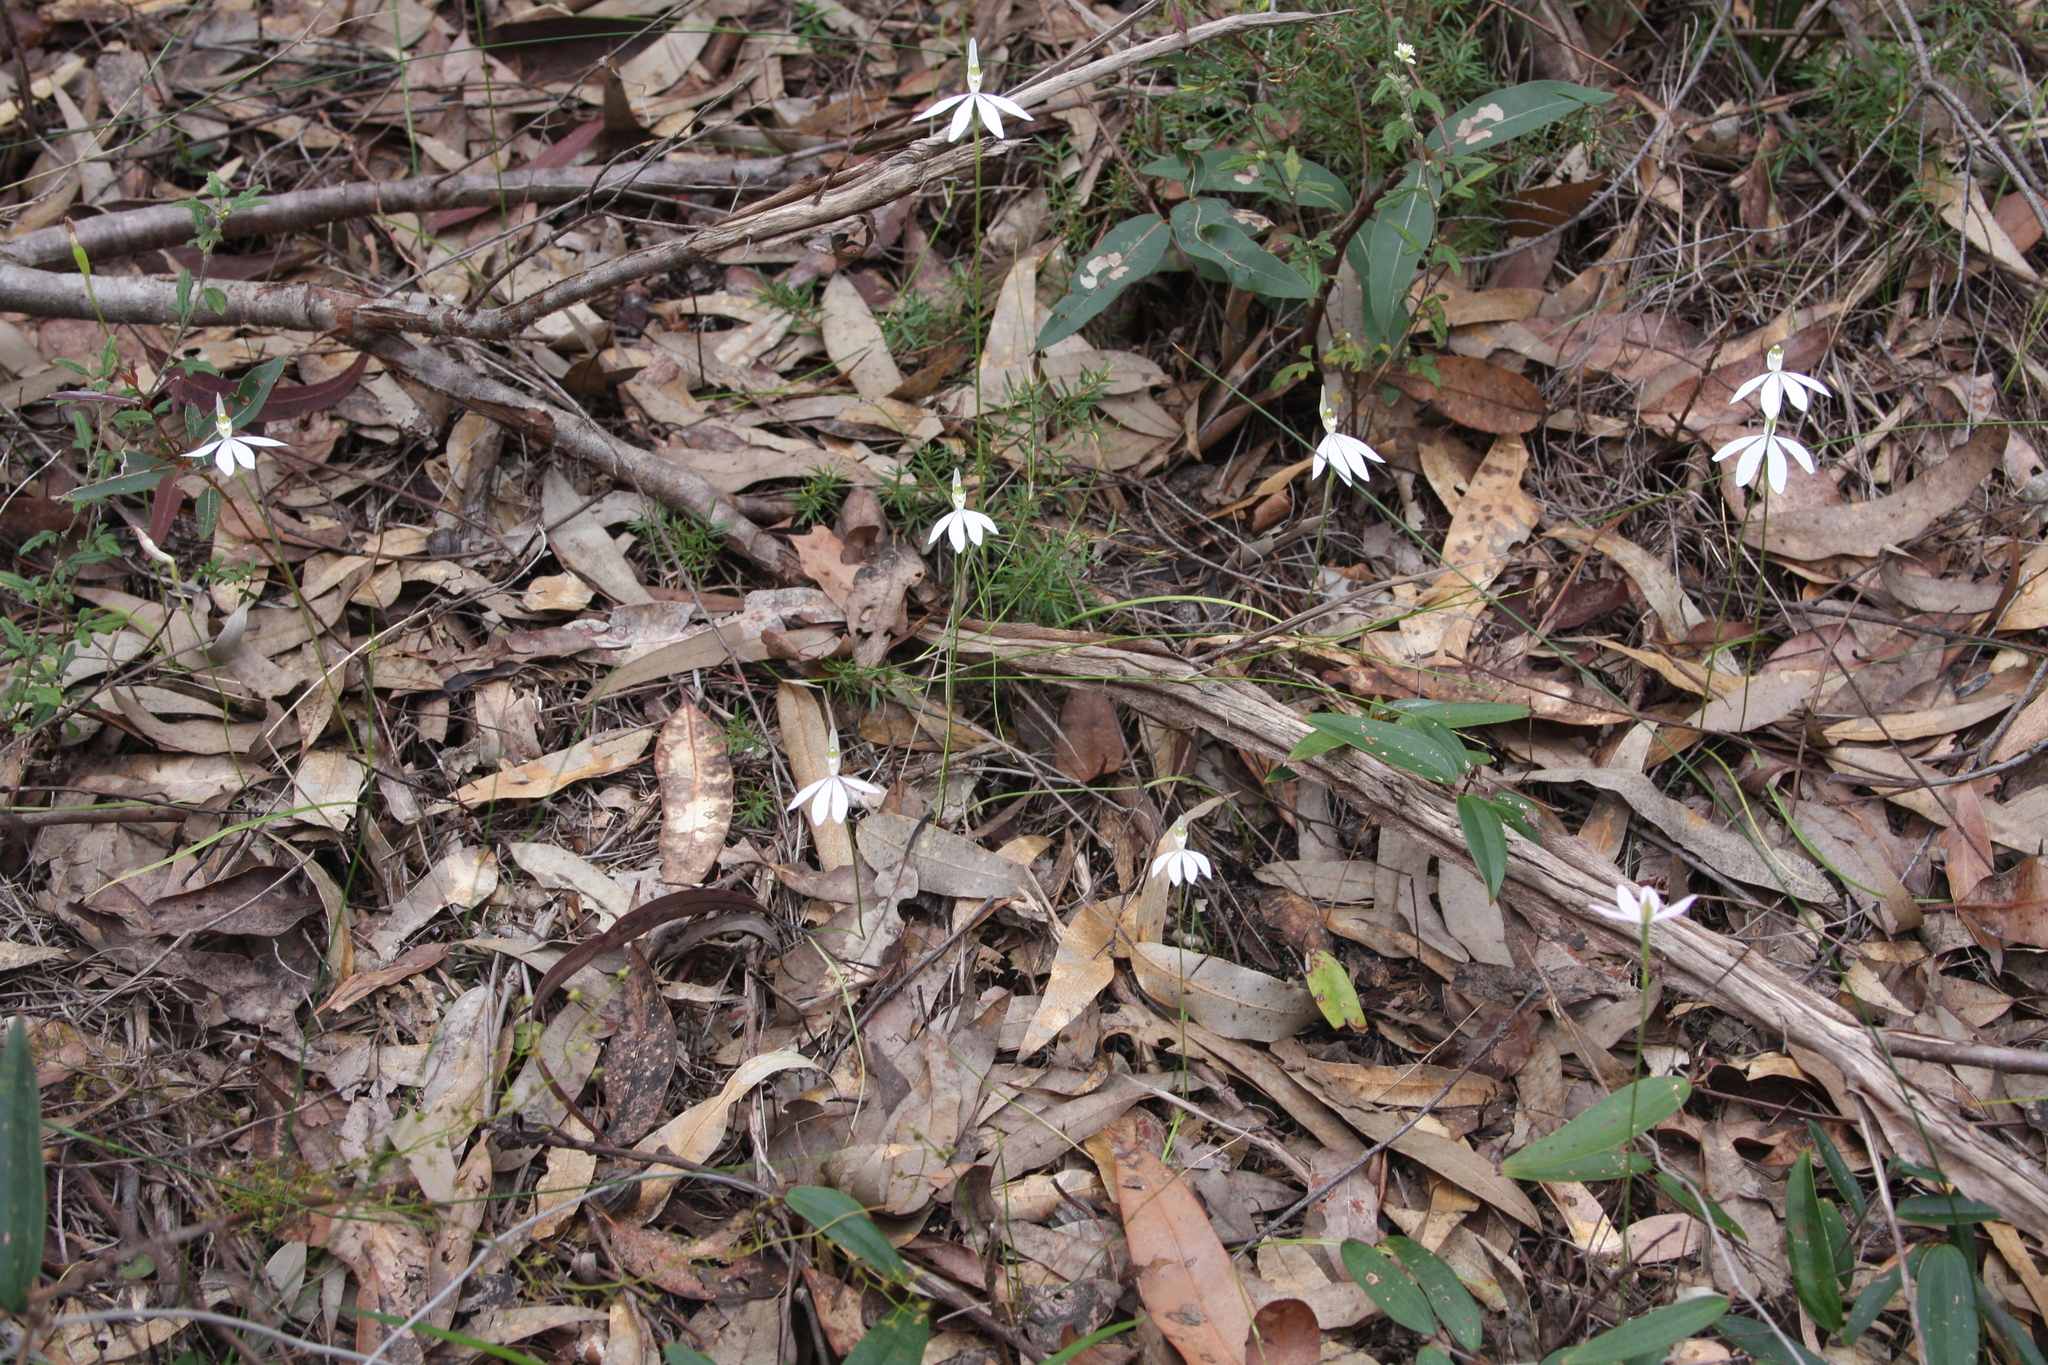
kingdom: Plantae
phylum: Tracheophyta
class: Liliopsida
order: Asparagales
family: Orchidaceae
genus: Caladenia
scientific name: Caladenia catenata
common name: White caladenia
